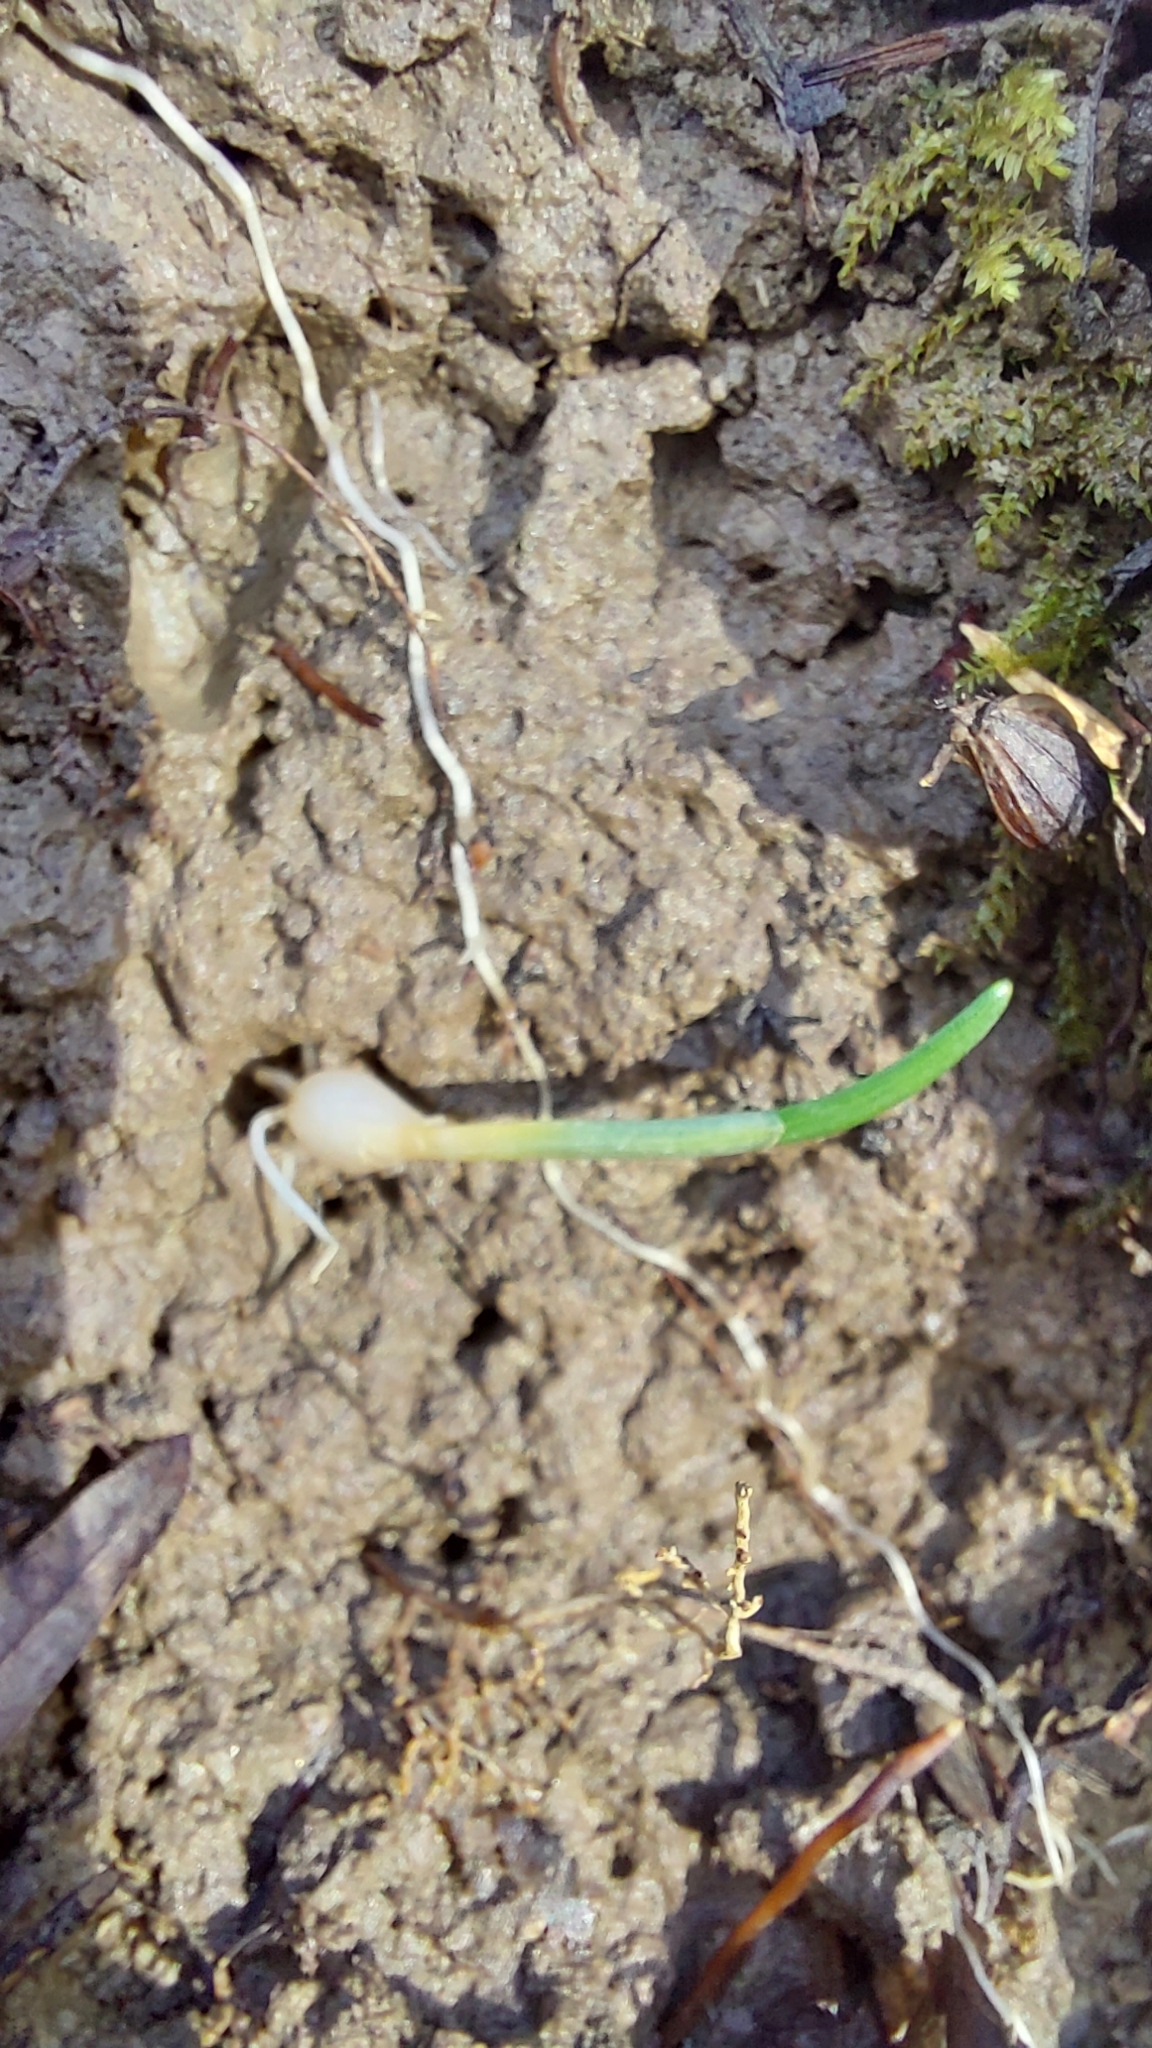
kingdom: Plantae
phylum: Tracheophyta
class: Liliopsida
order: Asparagales
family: Amaryllidaceae
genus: Galanthus
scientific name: Galanthus alpinus
